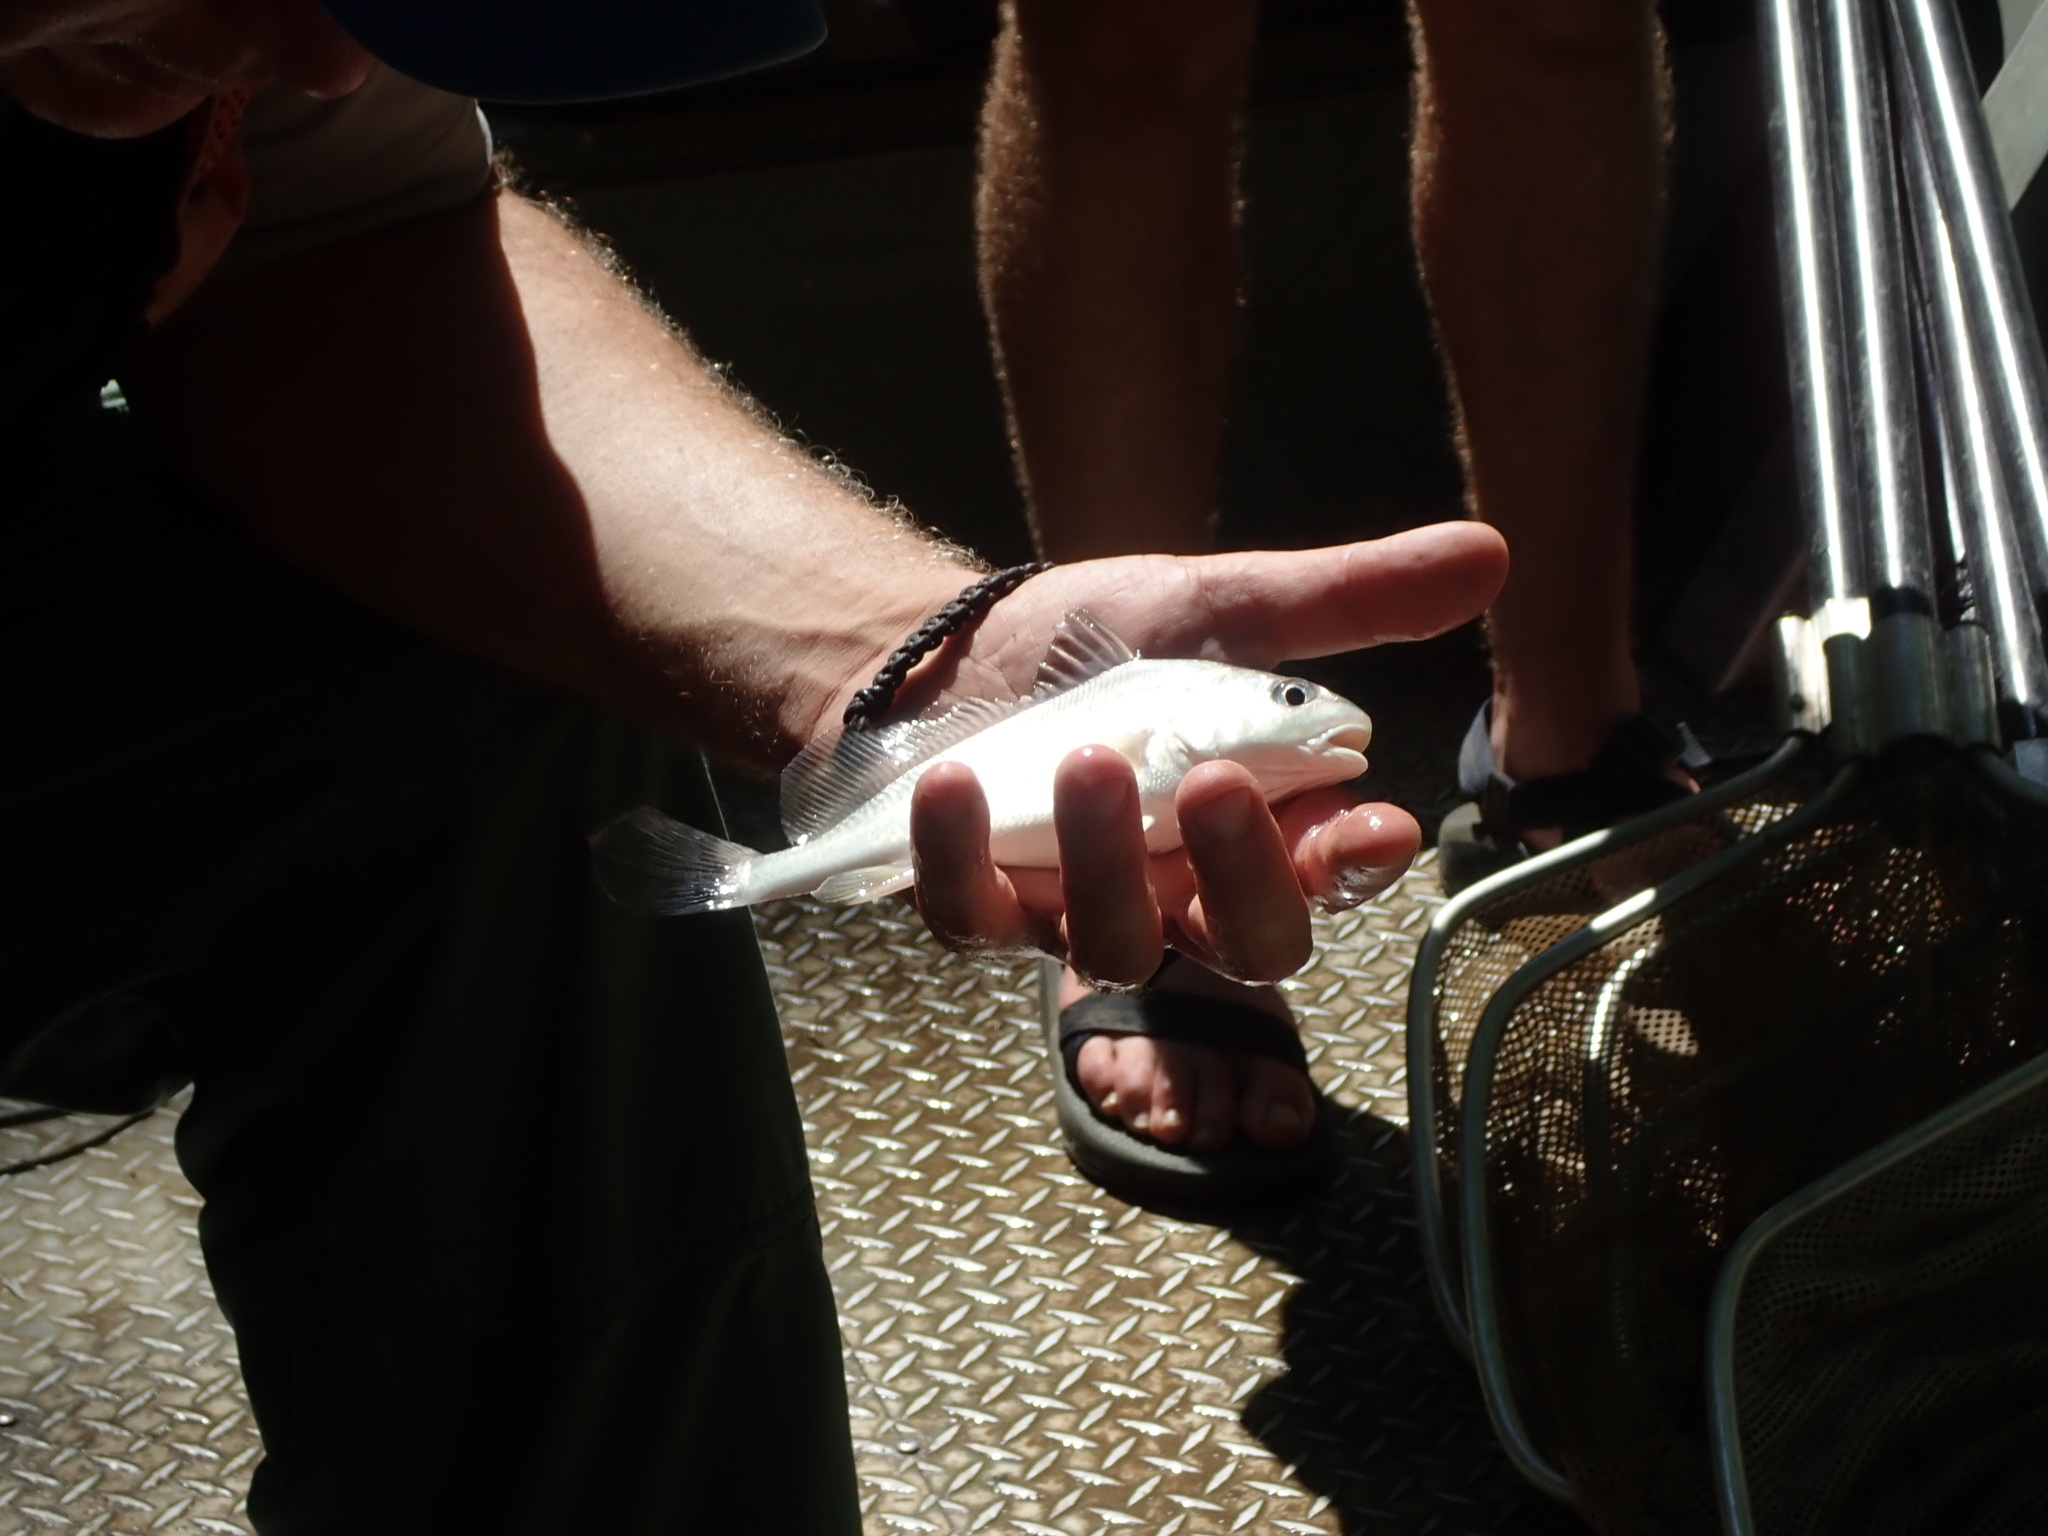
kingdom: Animalia
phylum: Chordata
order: Perciformes
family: Sciaenidae
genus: Aplodinotus
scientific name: Aplodinotus grunniens
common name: Freshwater drum
